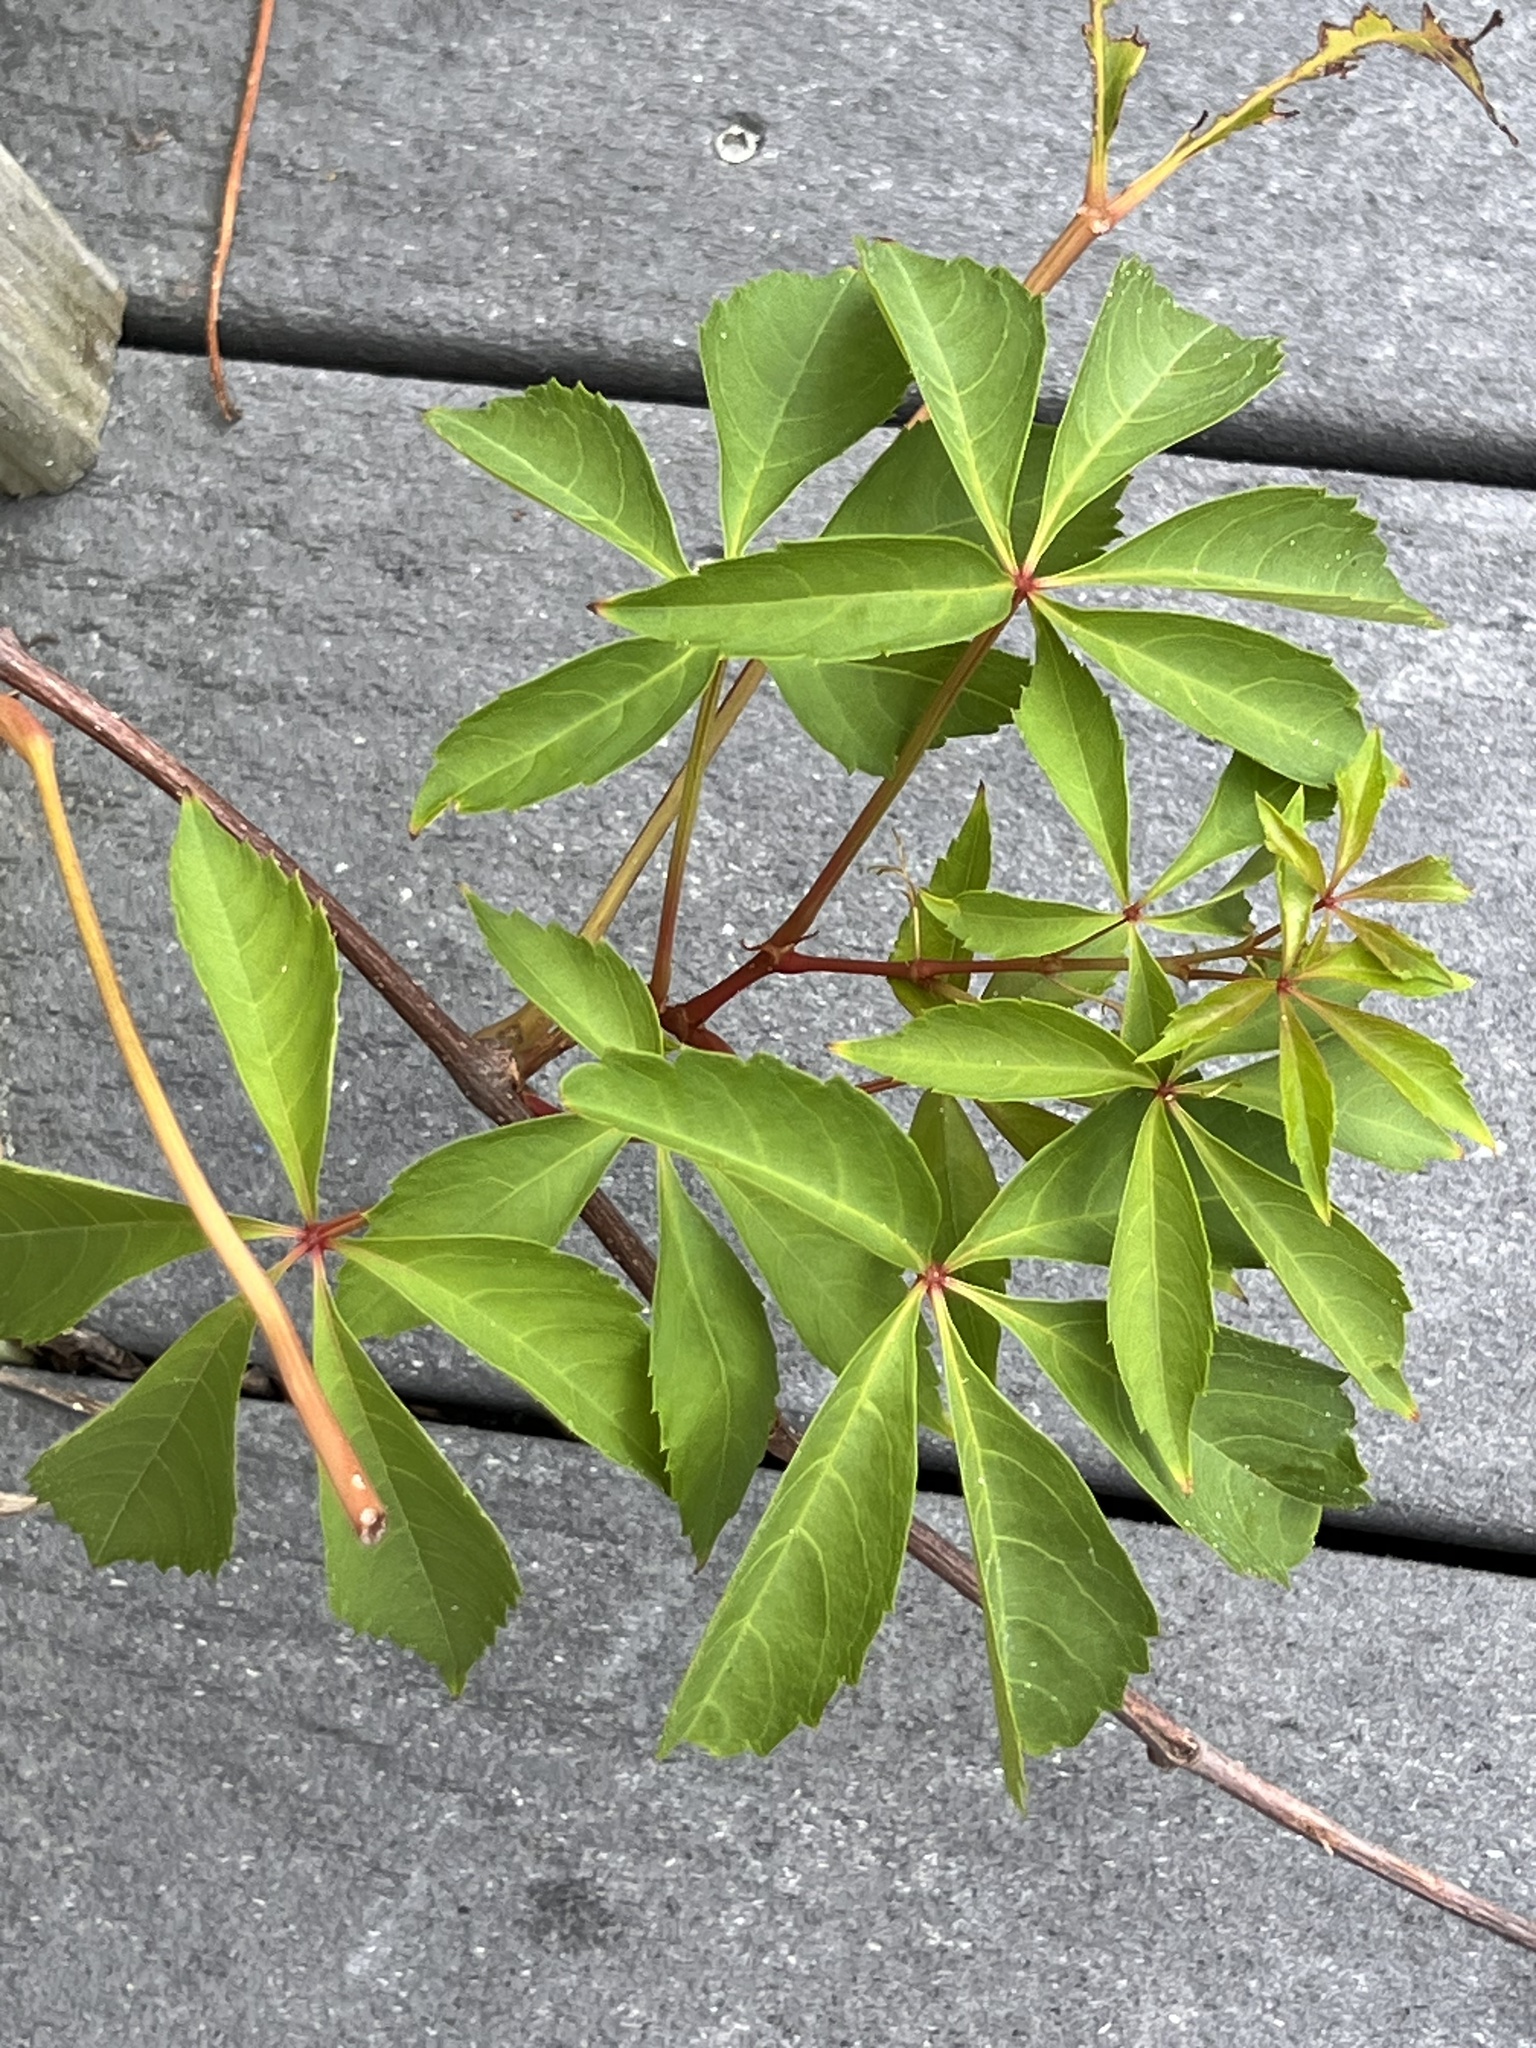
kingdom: Plantae
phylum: Tracheophyta
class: Magnoliopsida
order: Vitales
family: Vitaceae
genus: Parthenocissus
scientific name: Parthenocissus quinquefolia
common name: Virginia-creeper
